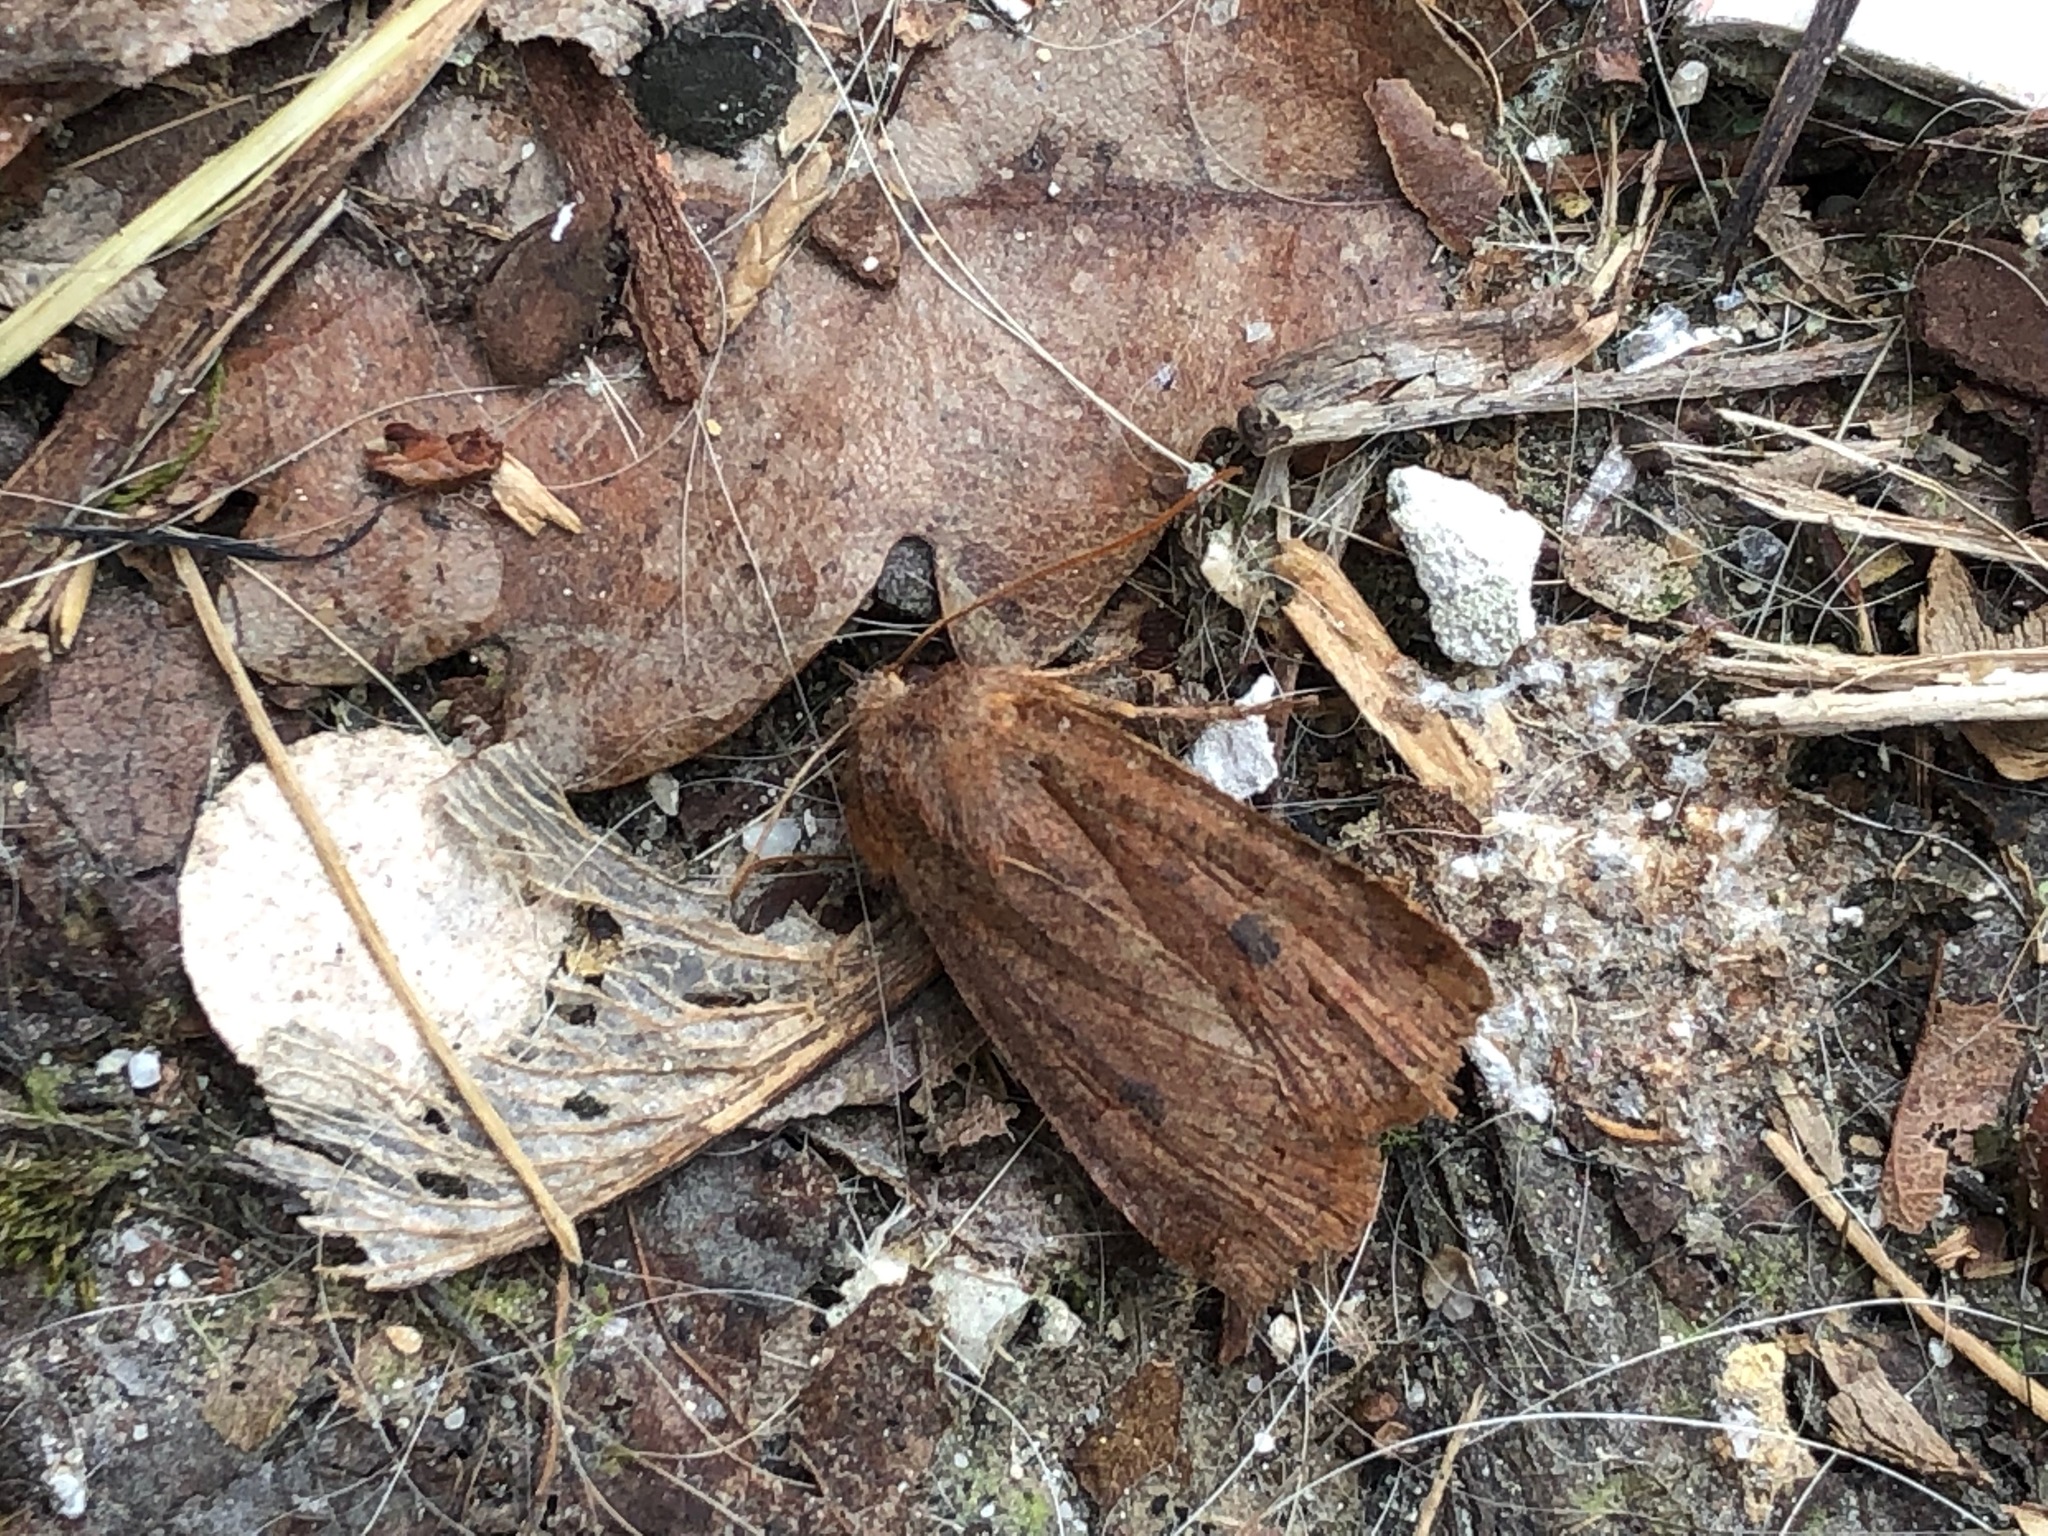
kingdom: Animalia
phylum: Arthropoda
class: Insecta
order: Lepidoptera
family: Noctuidae
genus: Conistra
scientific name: Conistra vaccinii
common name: Chestnut
